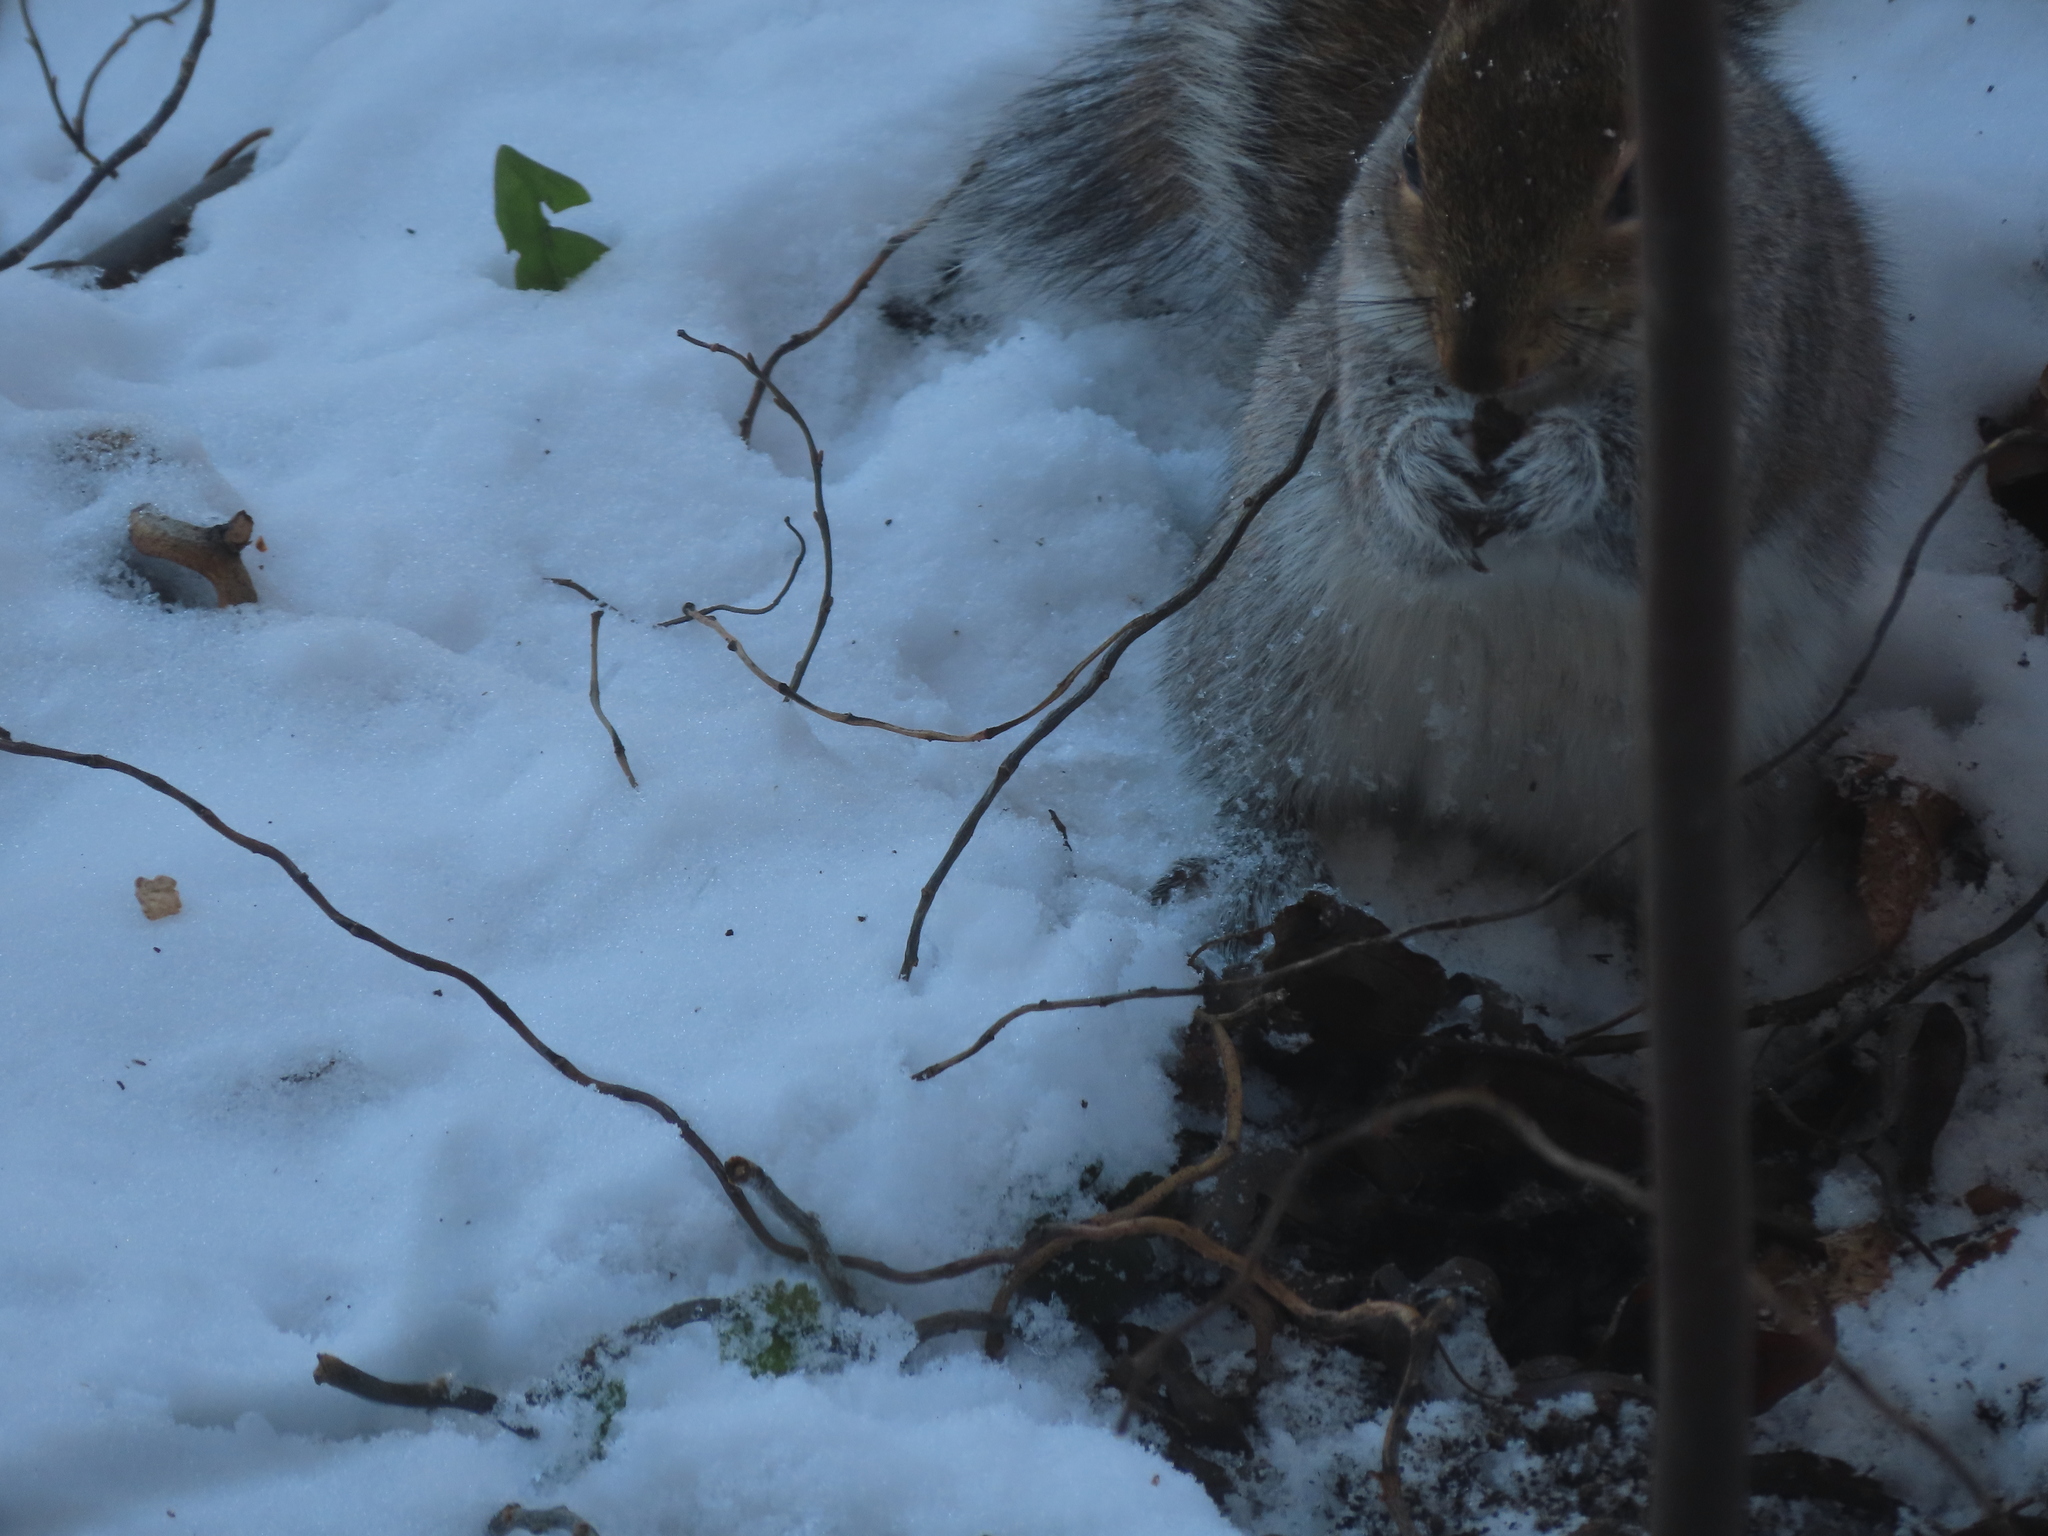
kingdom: Animalia
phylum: Chordata
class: Mammalia
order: Rodentia
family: Sciuridae
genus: Sciurus
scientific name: Sciurus carolinensis
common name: Eastern gray squirrel
